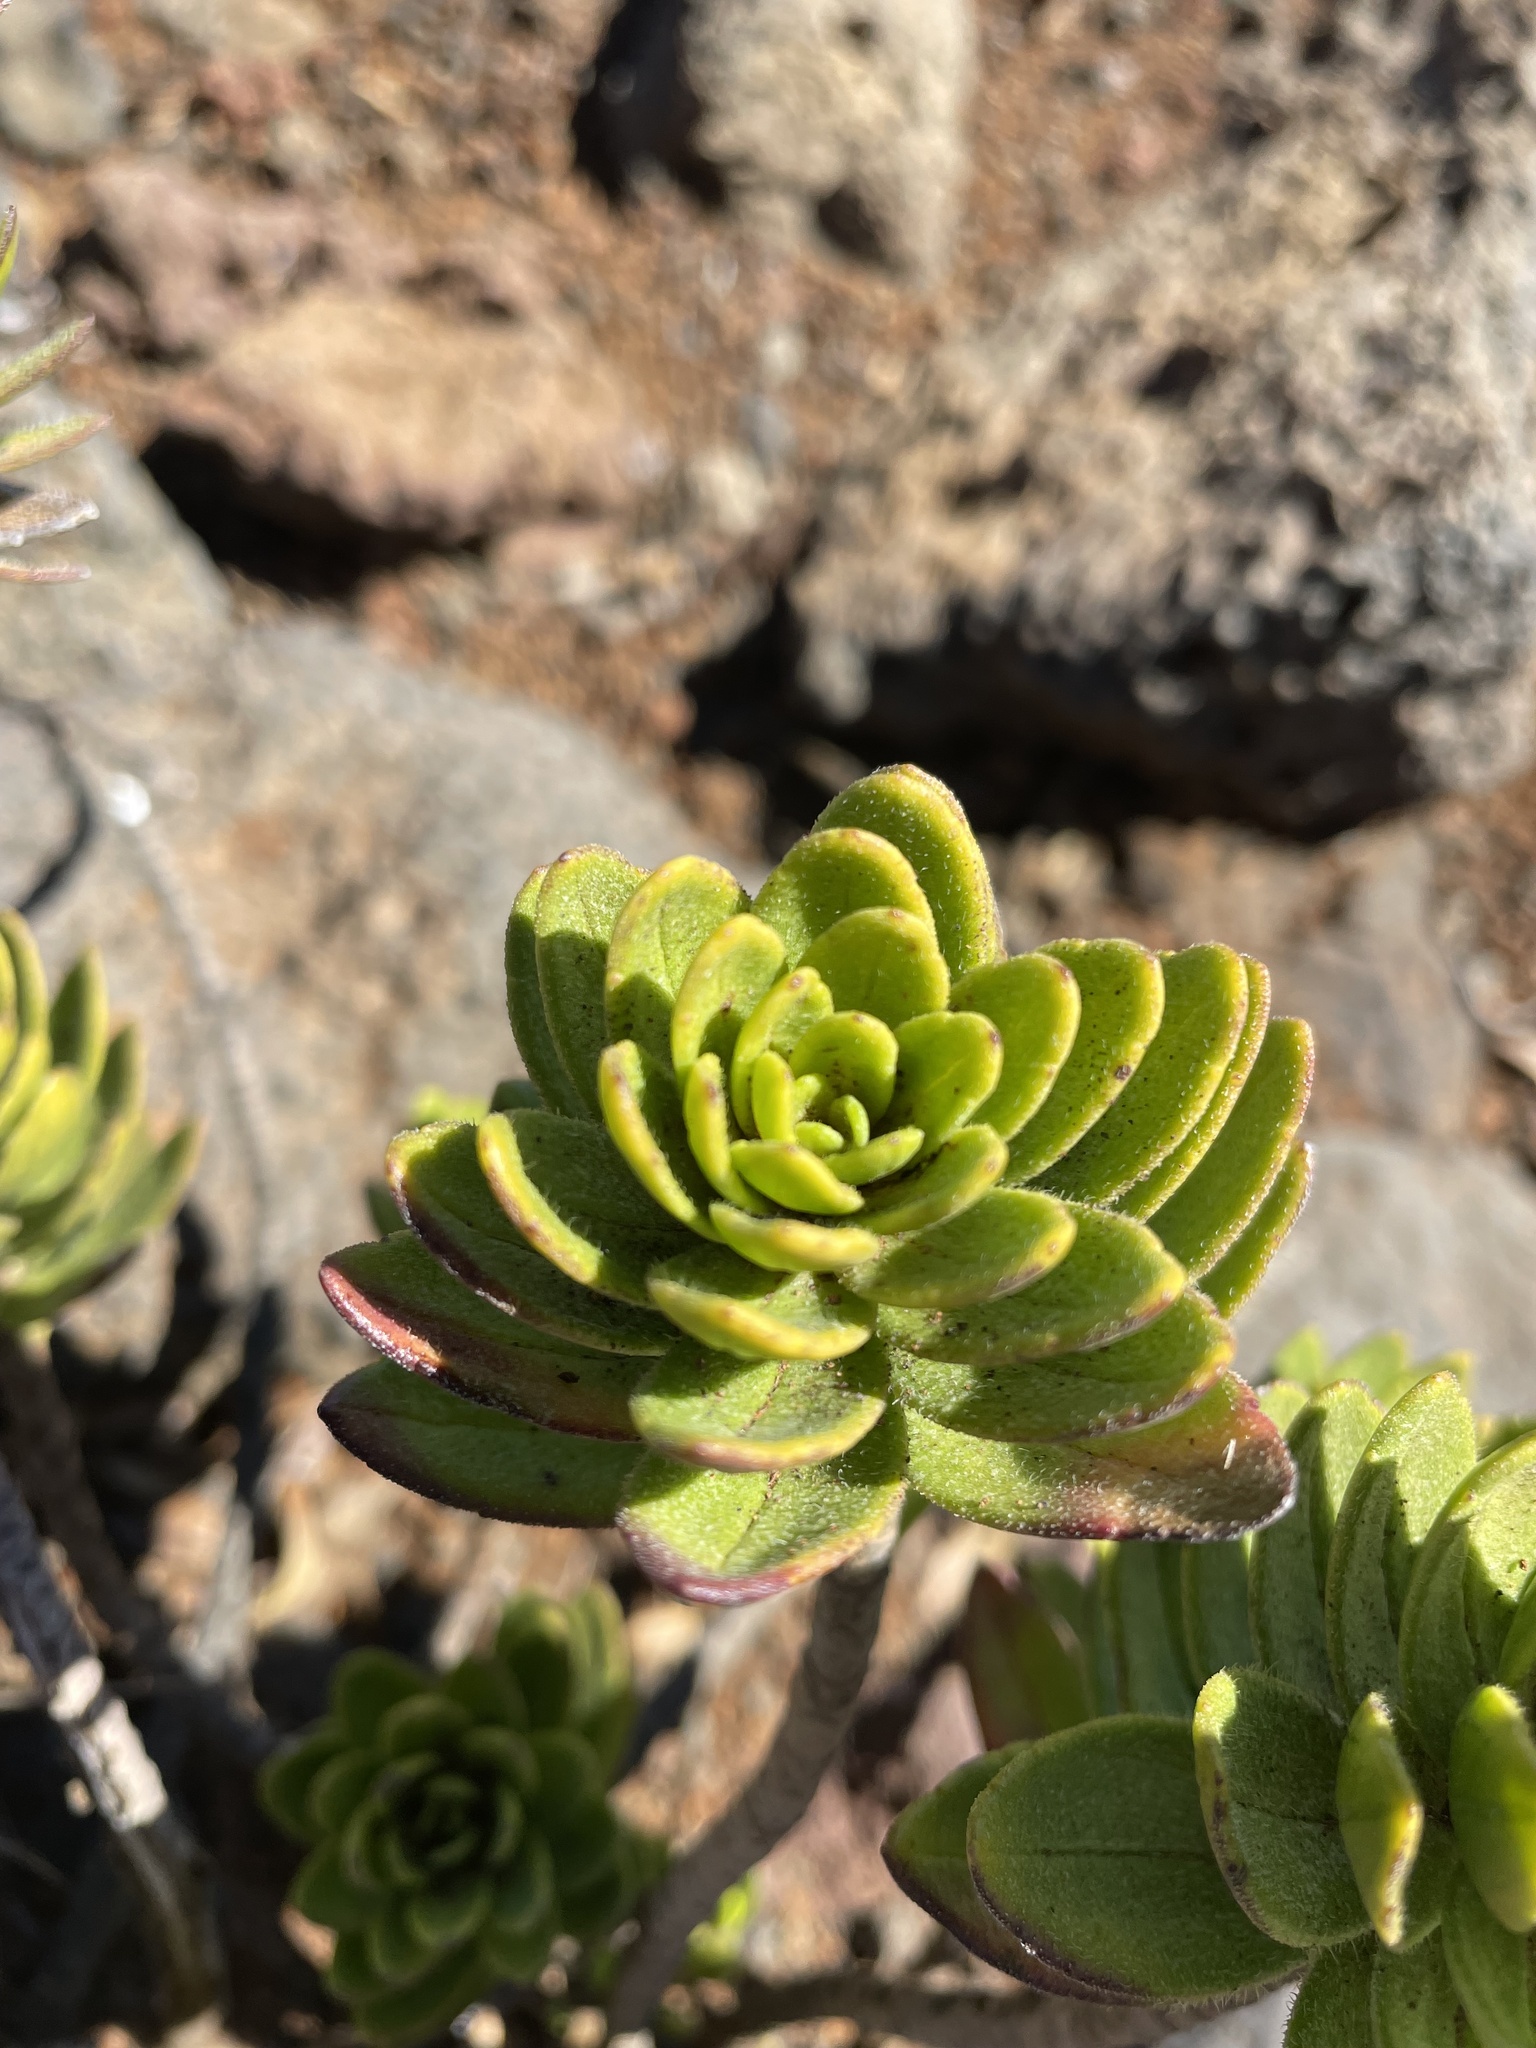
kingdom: Plantae
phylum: Tracheophyta
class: Magnoliopsida
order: Asterales
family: Asteraceae
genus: Dubautia
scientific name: Dubautia menziesii
